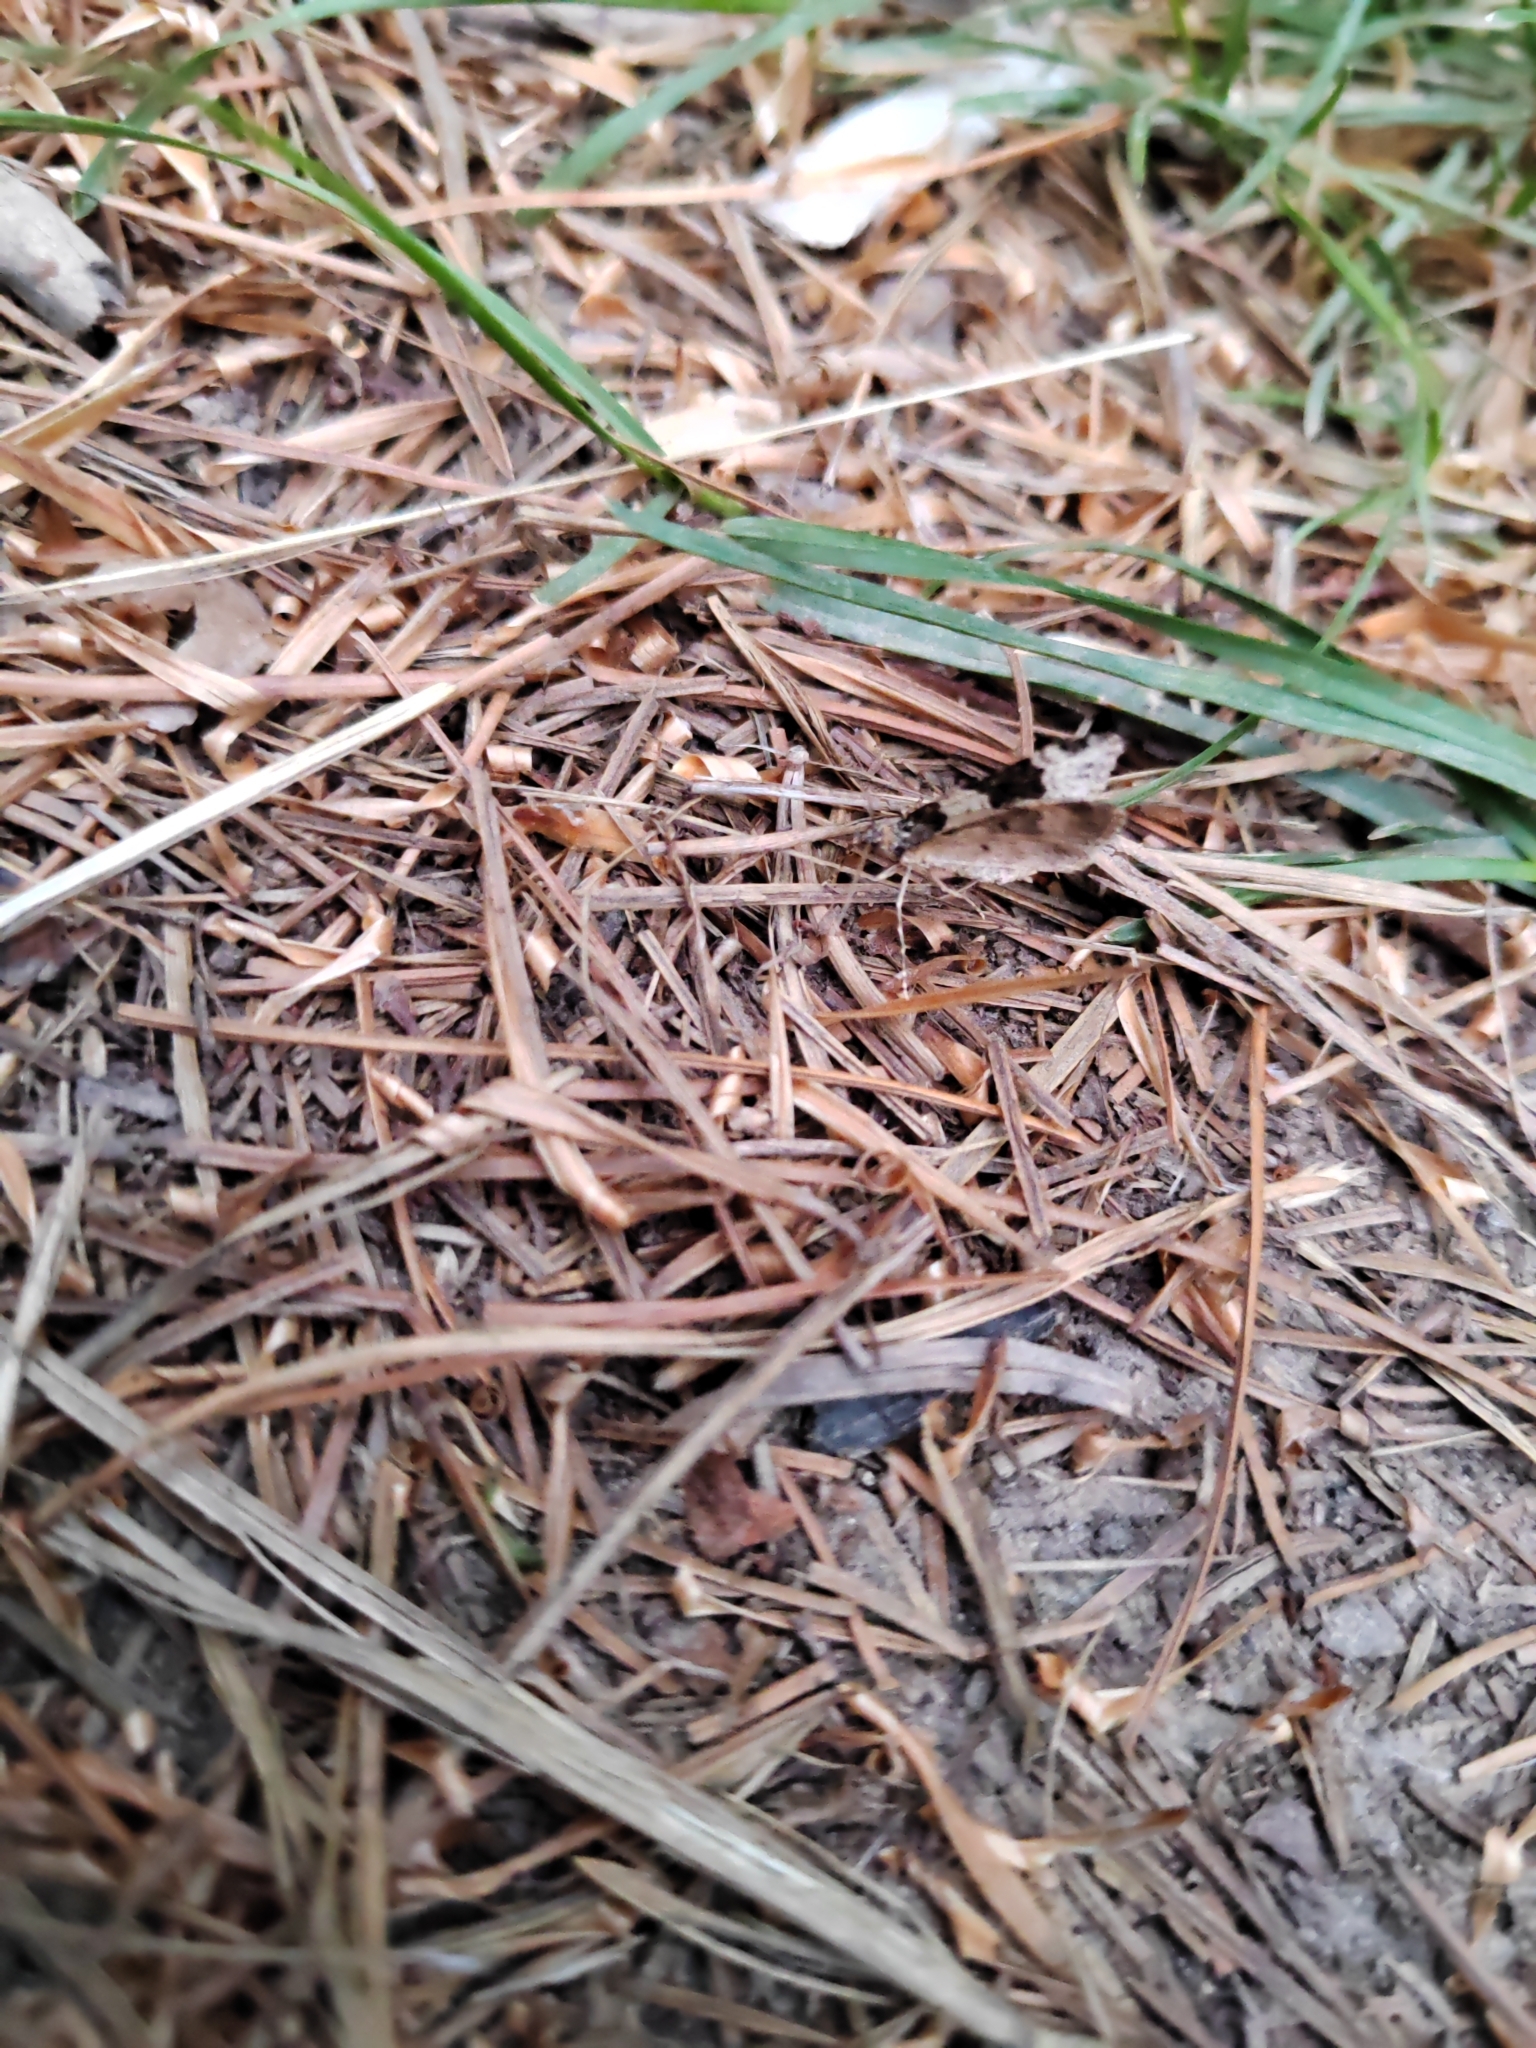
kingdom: Animalia
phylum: Arthropoda
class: Insecta
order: Lepidoptera
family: Geometridae
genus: Xanthorhoe
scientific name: Xanthorhoe fluctuata
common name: Garden carpet
